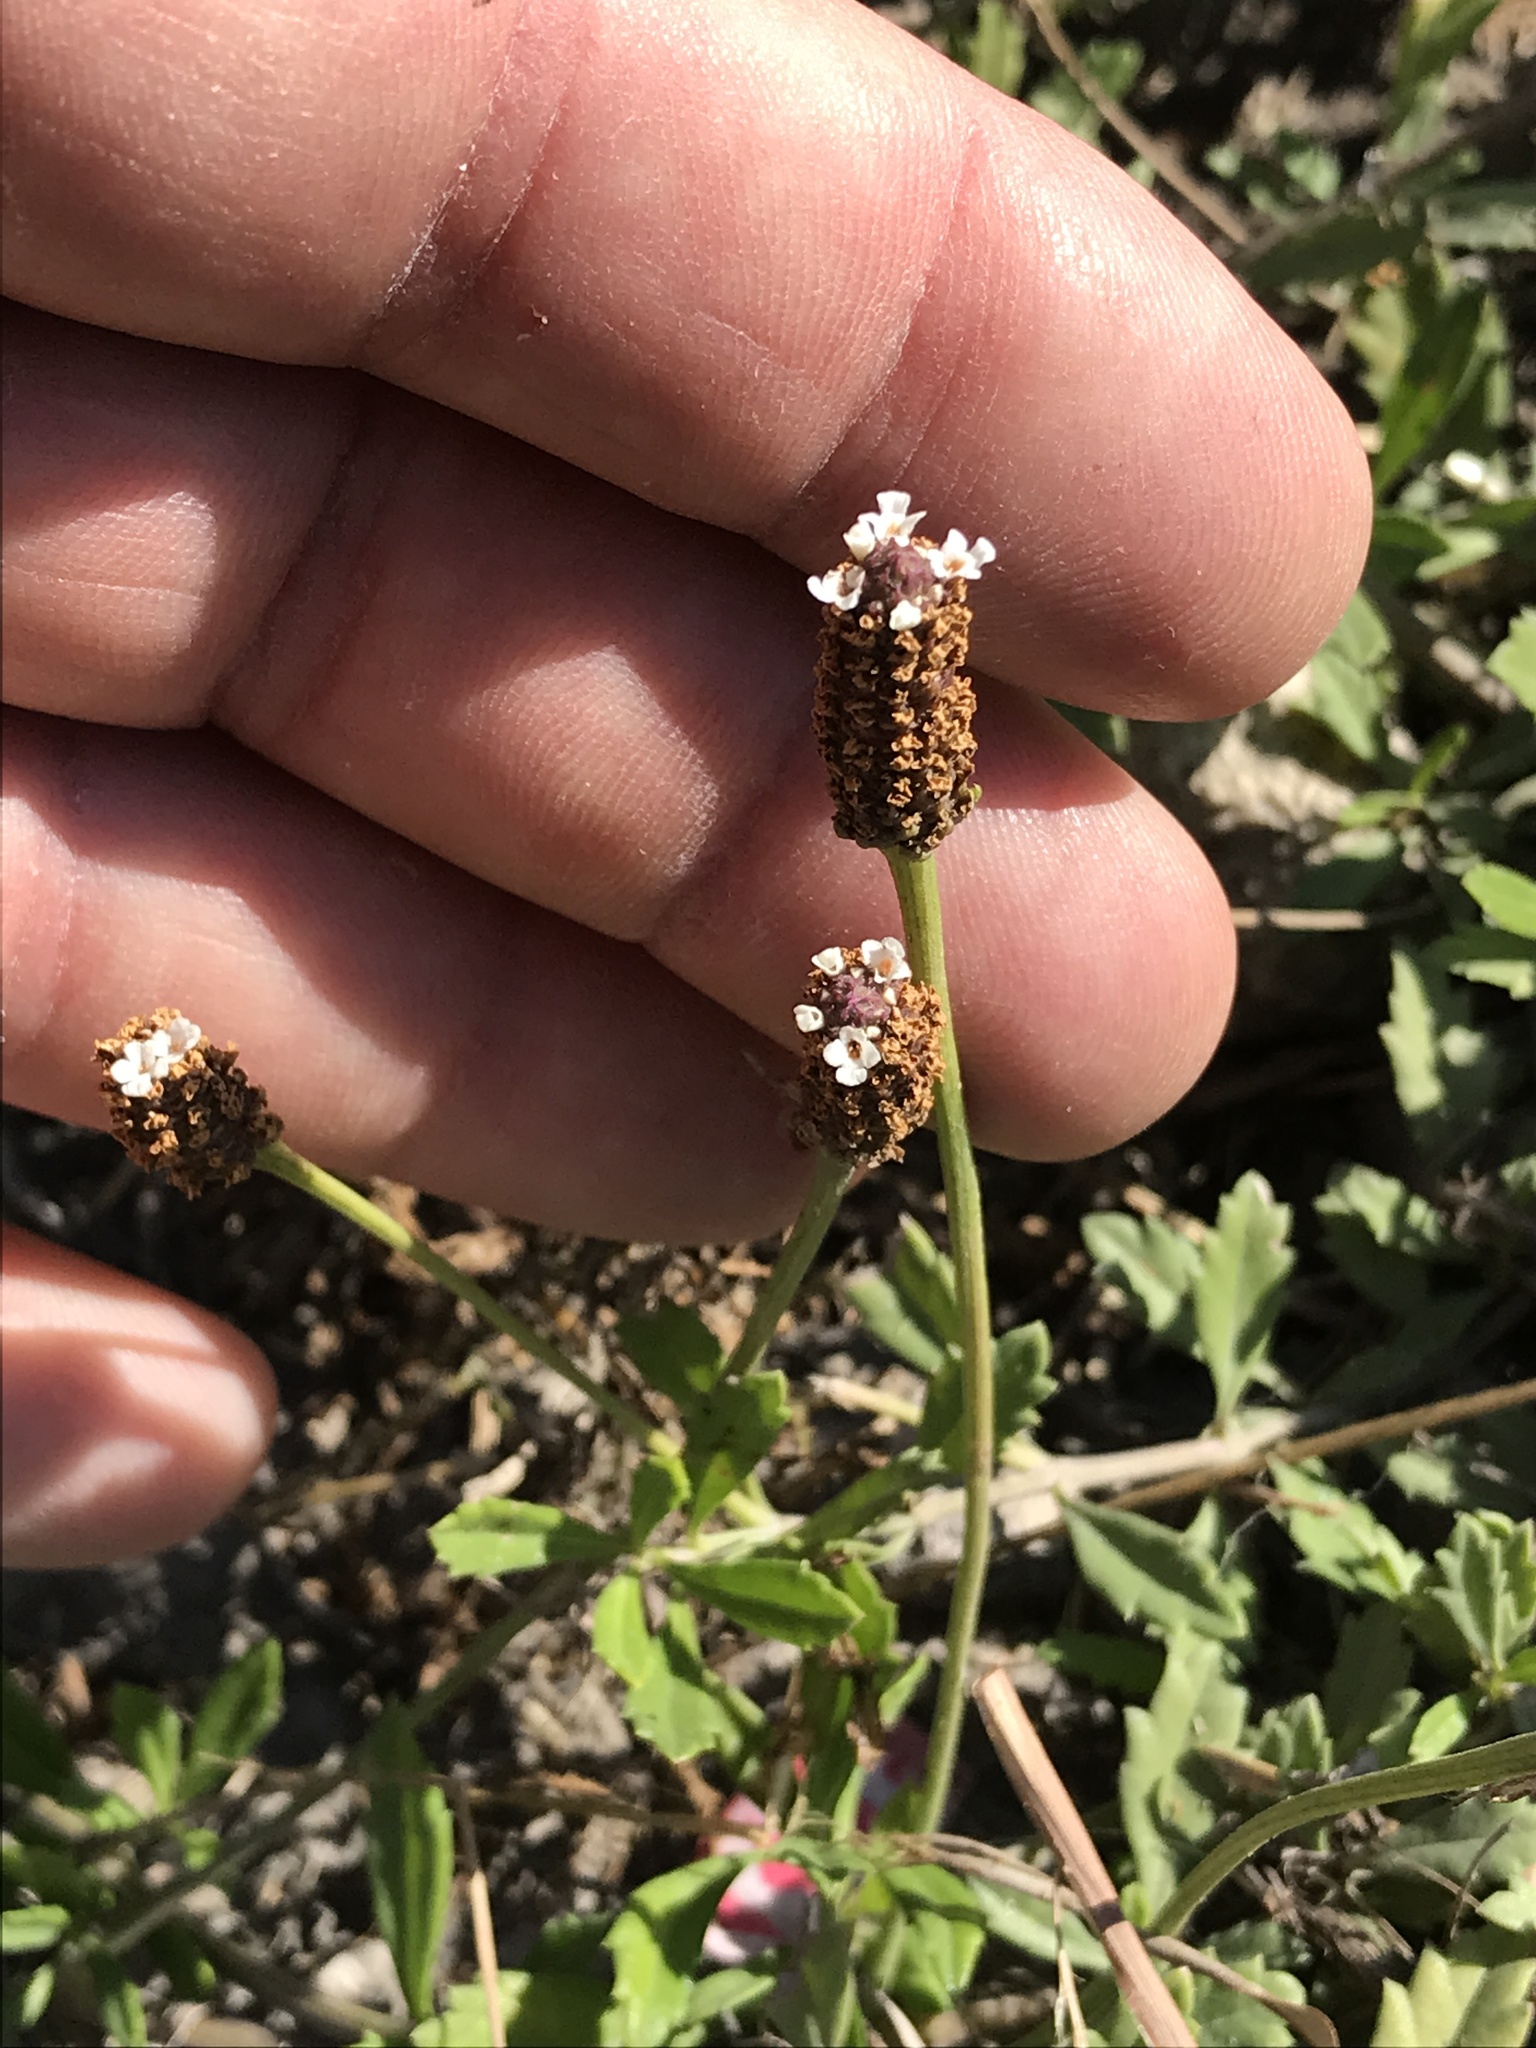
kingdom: Plantae
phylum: Tracheophyta
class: Magnoliopsida
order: Lamiales
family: Verbenaceae
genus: Phyla
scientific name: Phyla nodiflora
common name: Frogfruit
